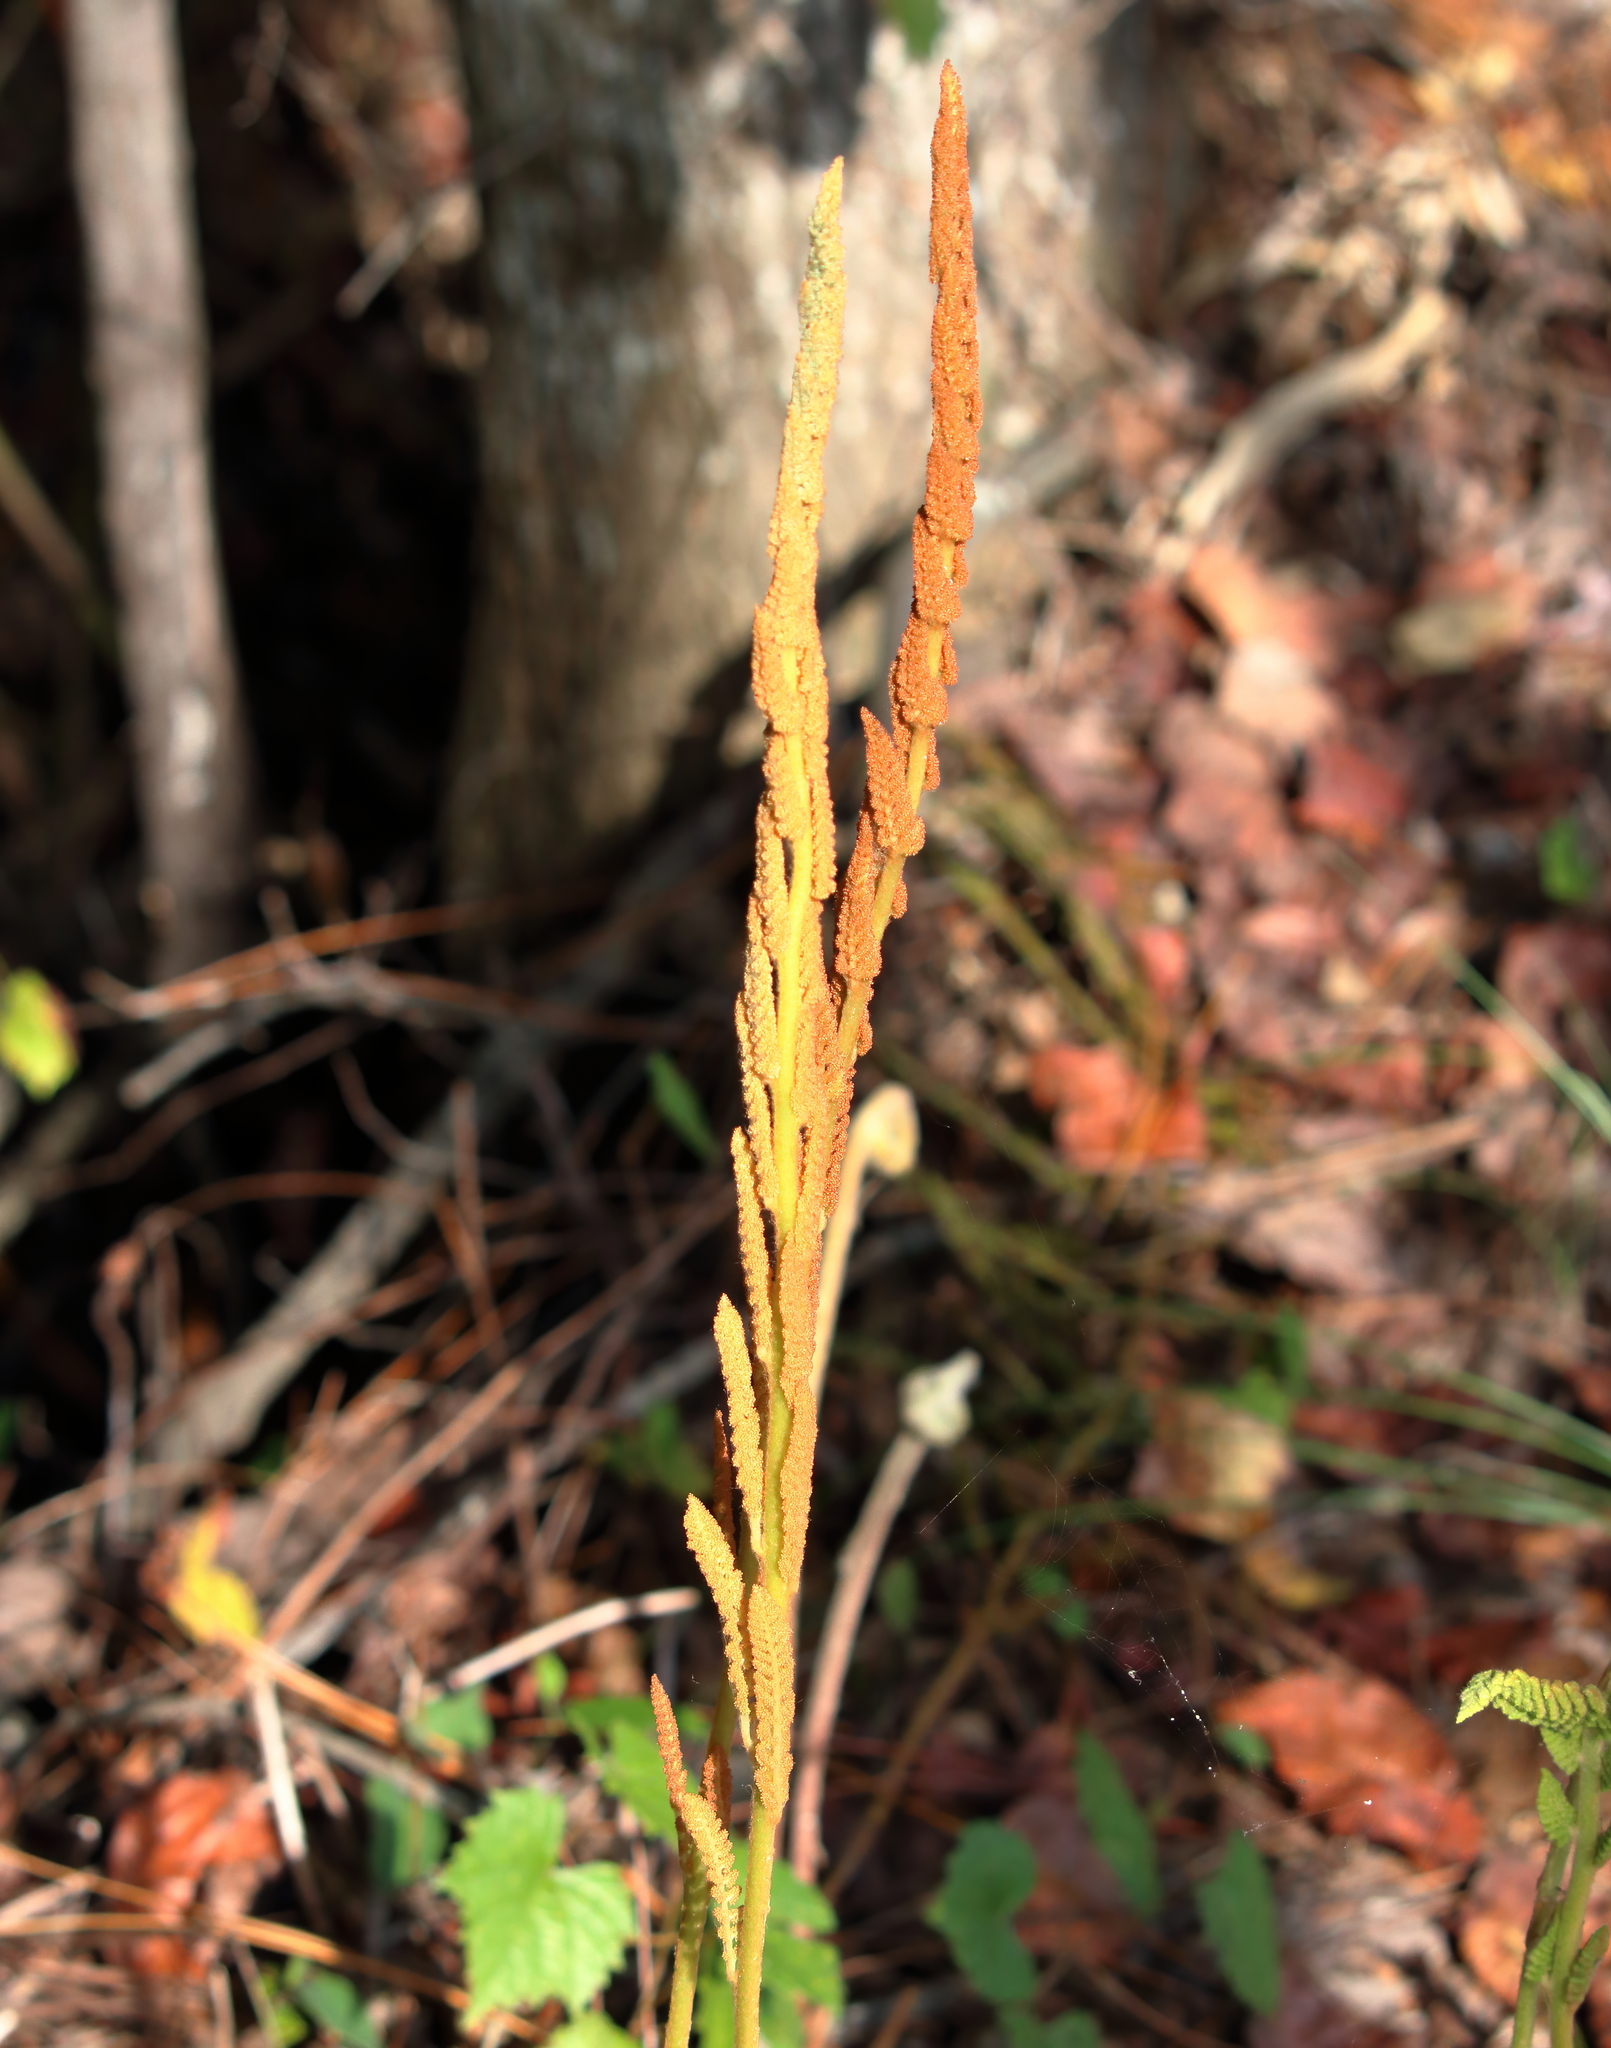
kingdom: Plantae
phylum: Tracheophyta
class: Polypodiopsida
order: Osmundales
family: Osmundaceae
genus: Osmundastrum
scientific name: Osmundastrum cinnamomeum
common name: Cinnamon fern
